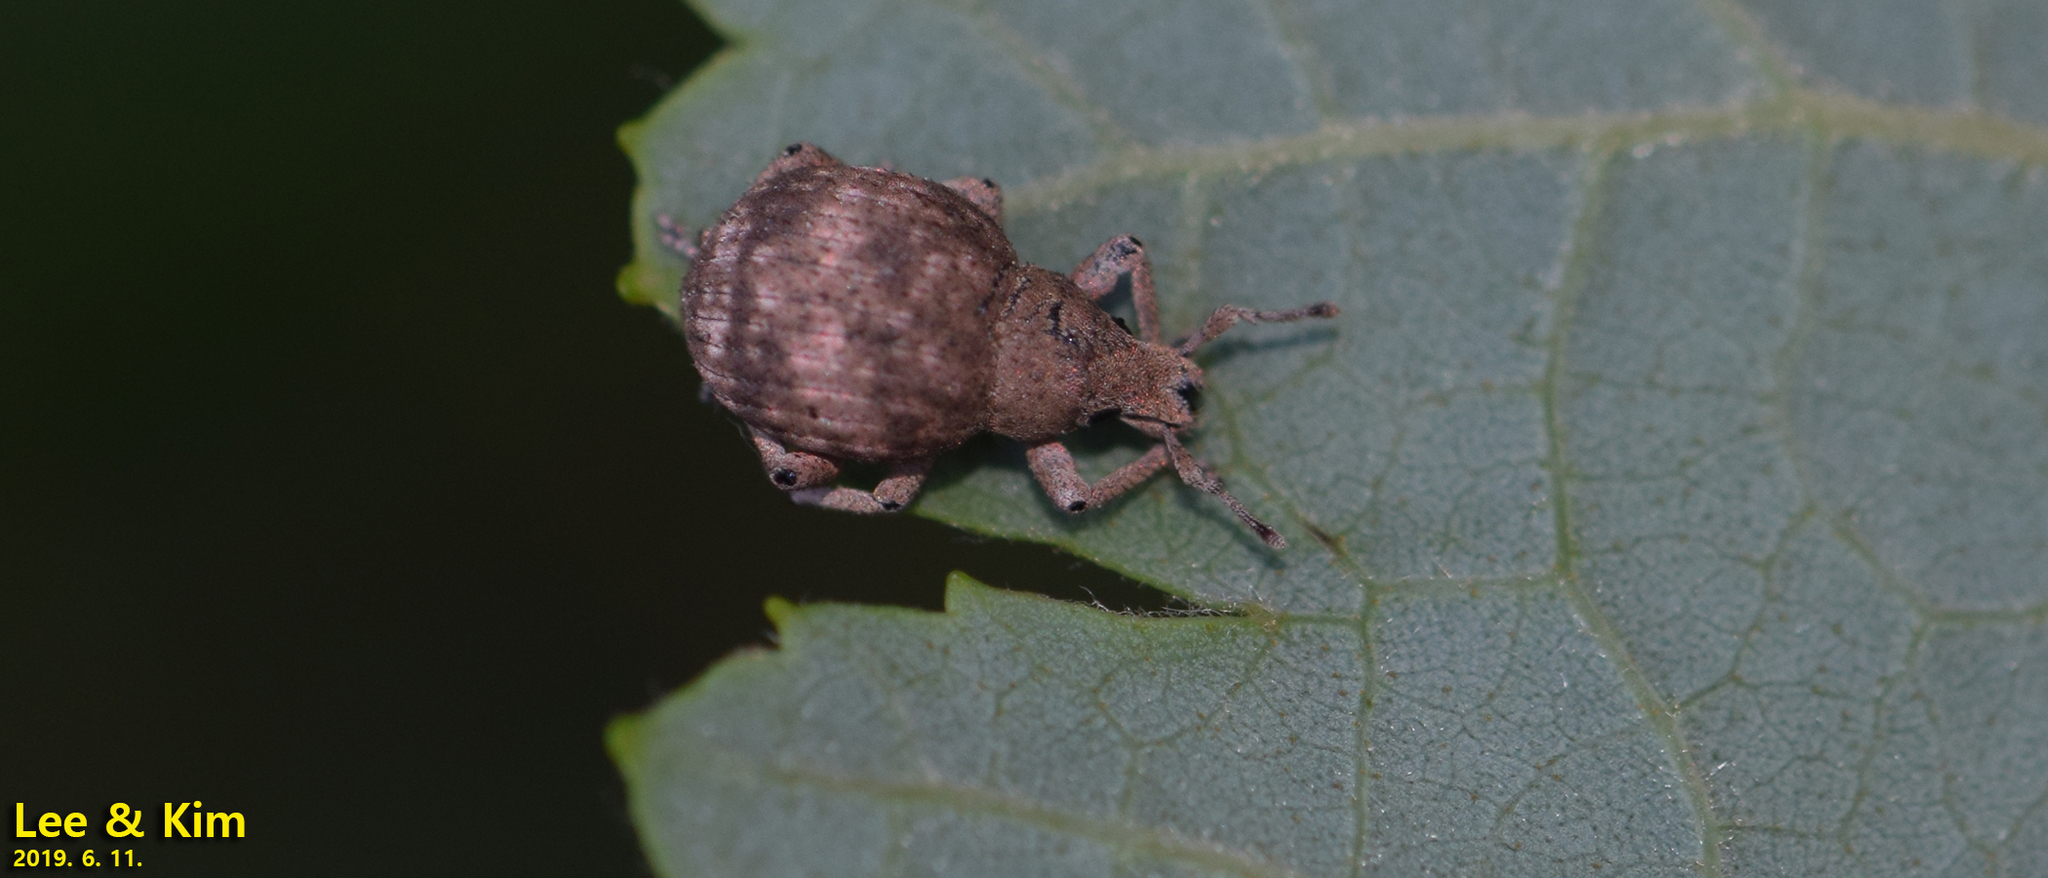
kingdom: Animalia
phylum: Arthropoda
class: Insecta
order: Coleoptera
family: Curculionidae
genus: Pseudocneorhinus
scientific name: Pseudocneorhinus bifasciatus
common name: Two-banded japanese weevil
